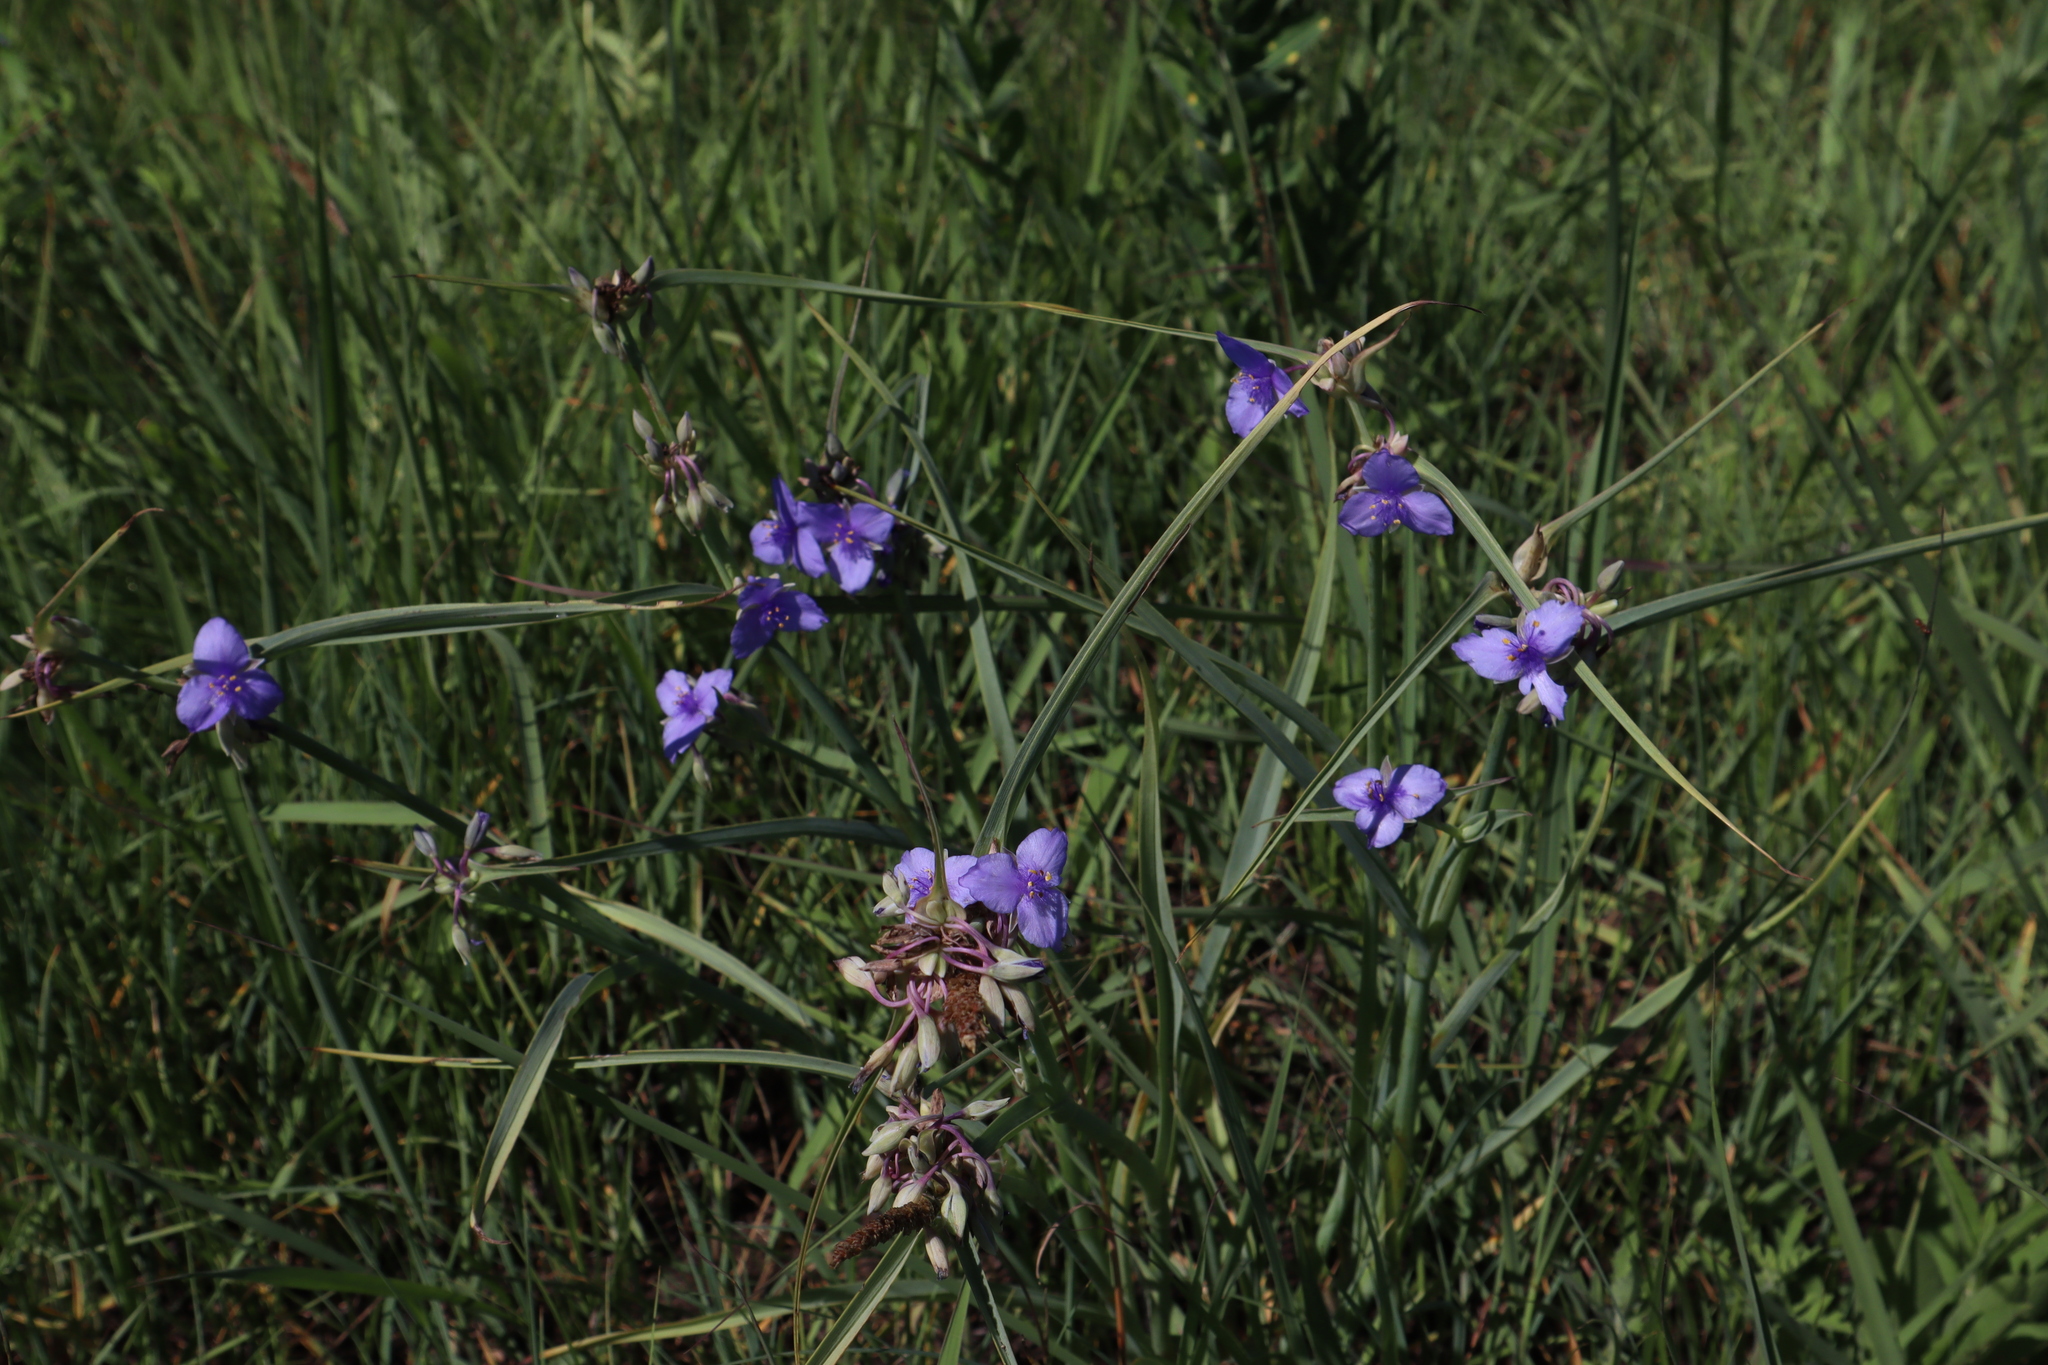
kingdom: Plantae
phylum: Tracheophyta
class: Liliopsida
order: Commelinales
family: Commelinaceae
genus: Tradescantia
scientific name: Tradescantia ohiensis
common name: Ohio spiderwort
